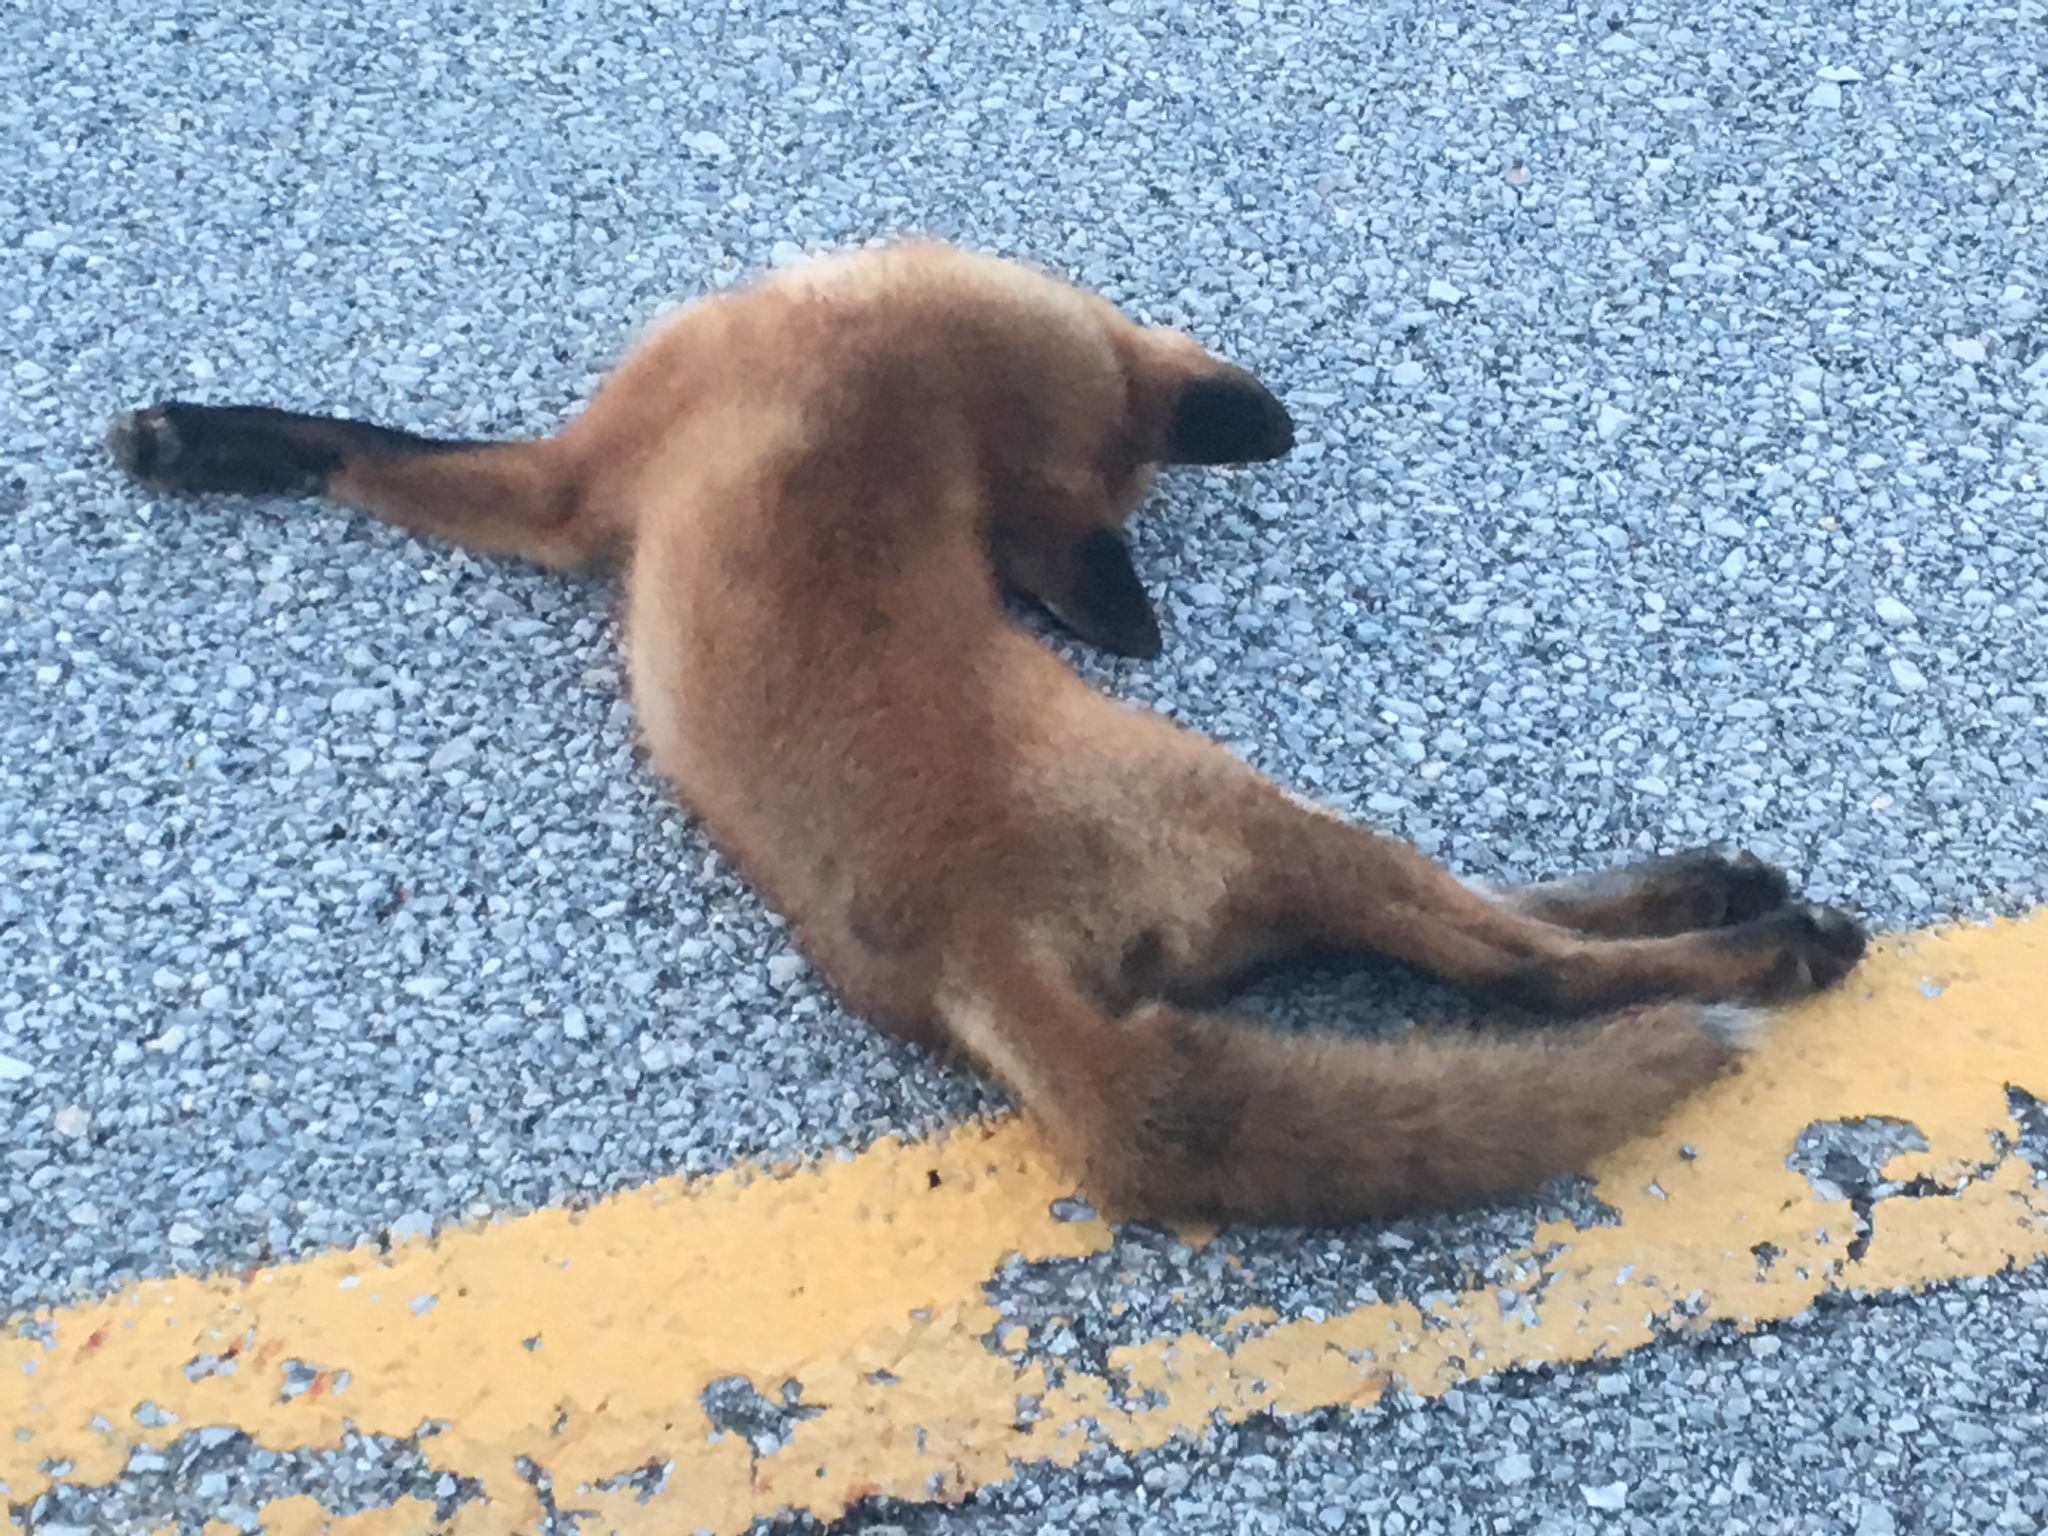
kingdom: Animalia
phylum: Chordata
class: Mammalia
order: Carnivora
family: Canidae
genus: Vulpes
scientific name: Vulpes vulpes
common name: Red fox
